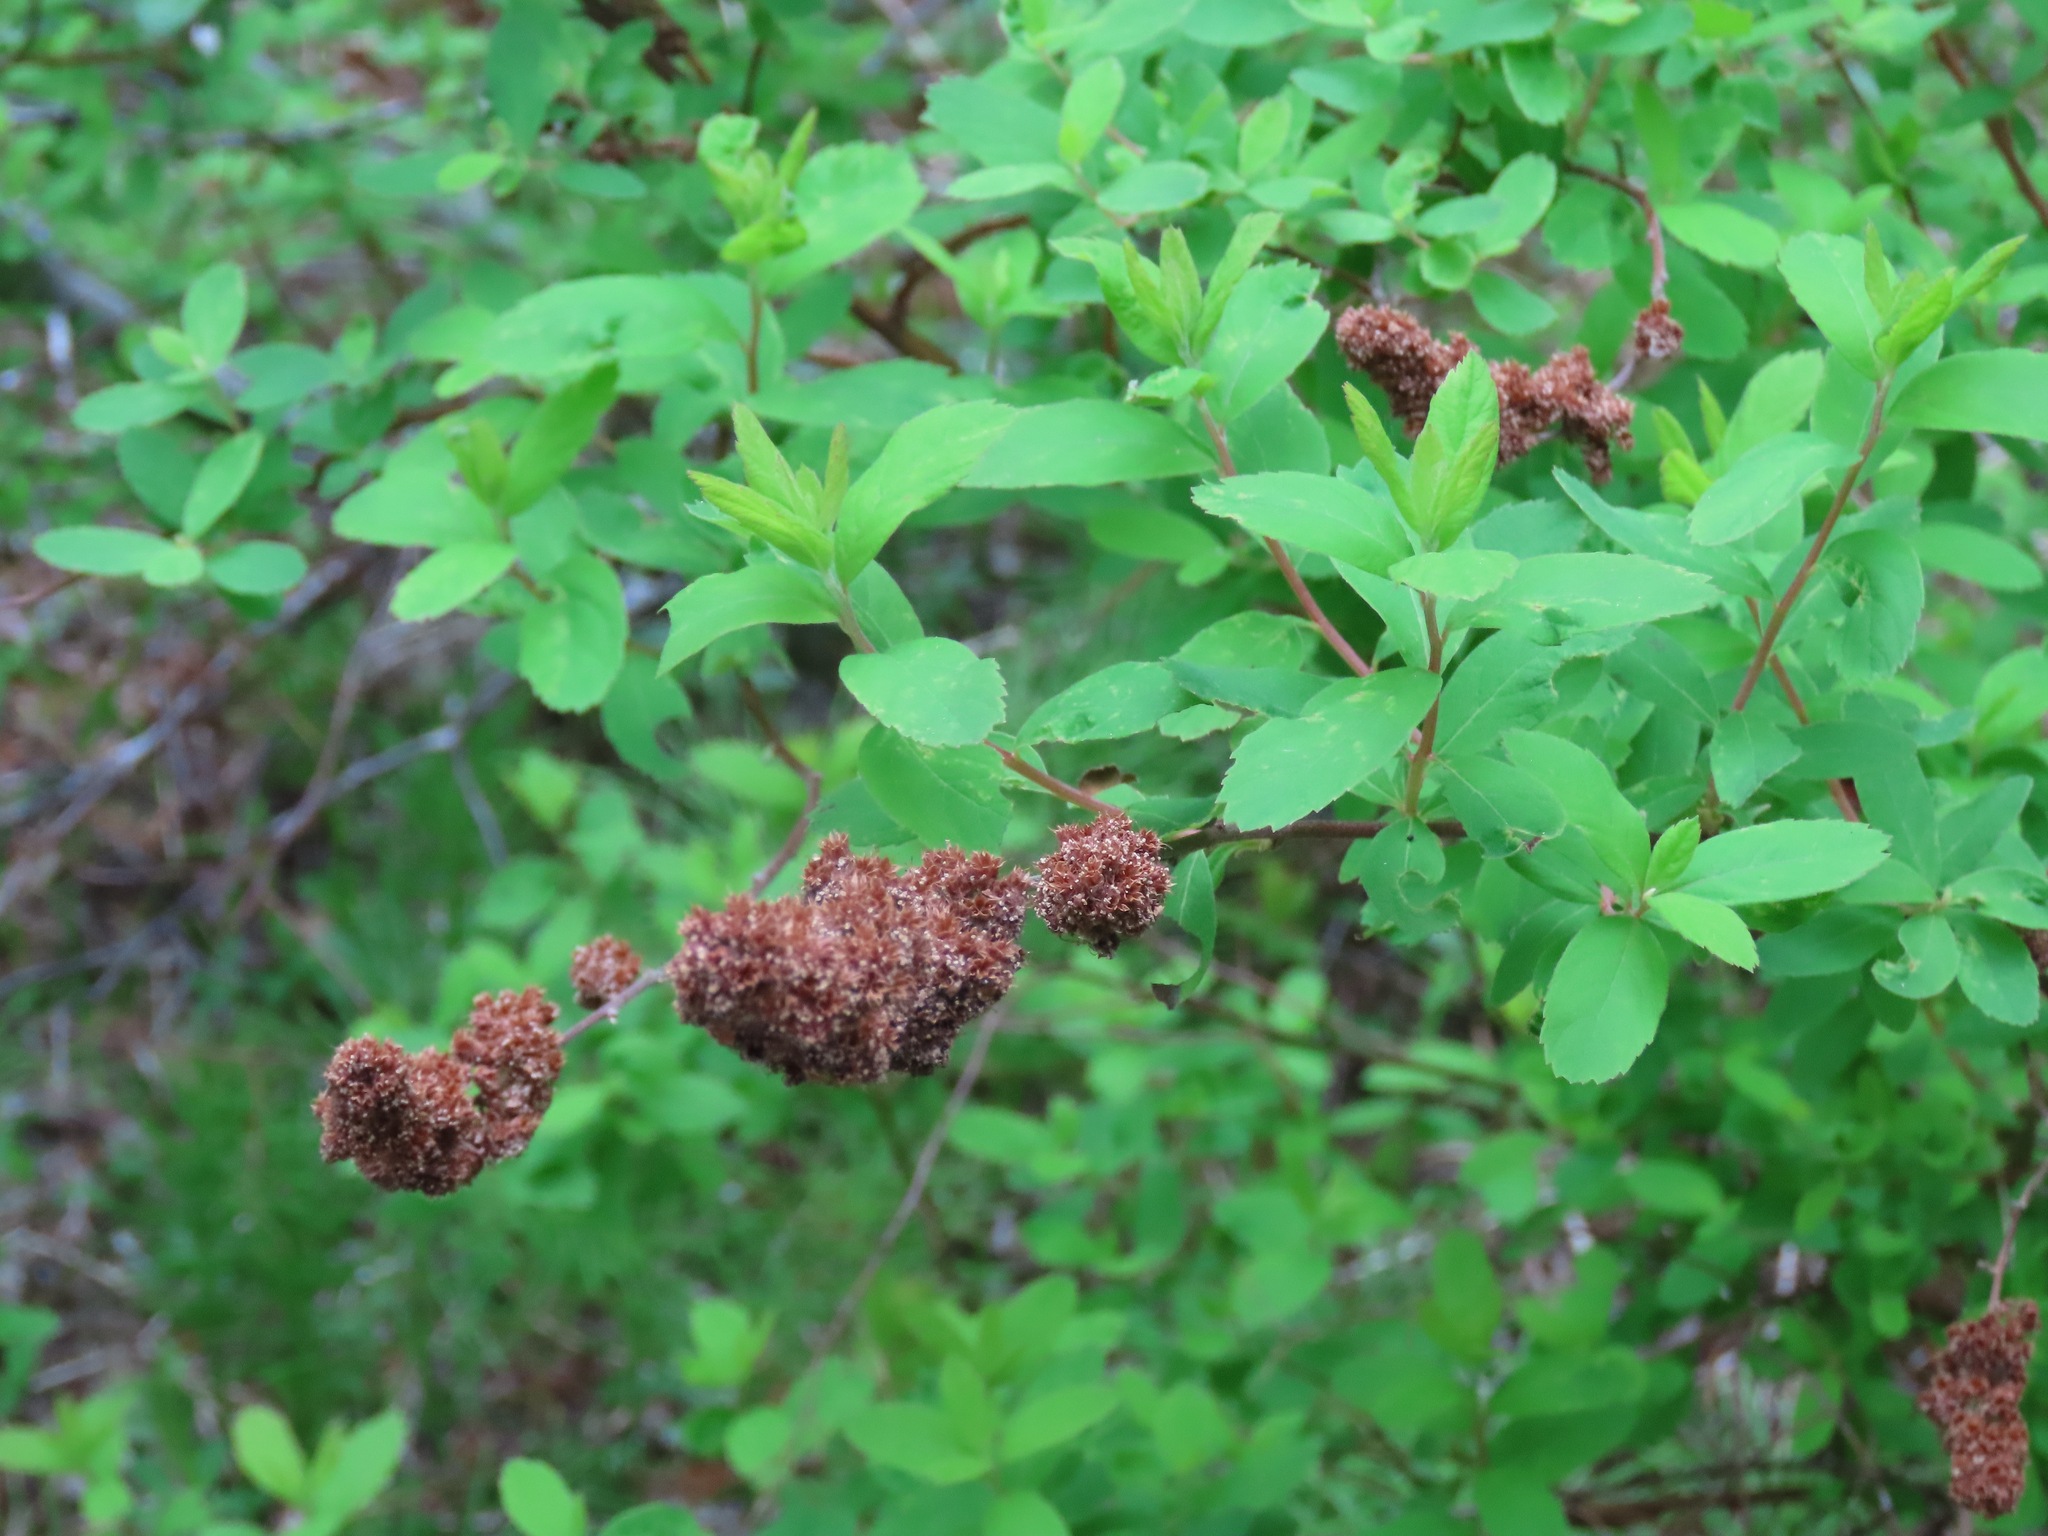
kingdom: Plantae
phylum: Tracheophyta
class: Magnoliopsida
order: Rosales
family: Rosaceae
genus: Spiraea
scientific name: Spiraea douglasii
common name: Steeplebush
